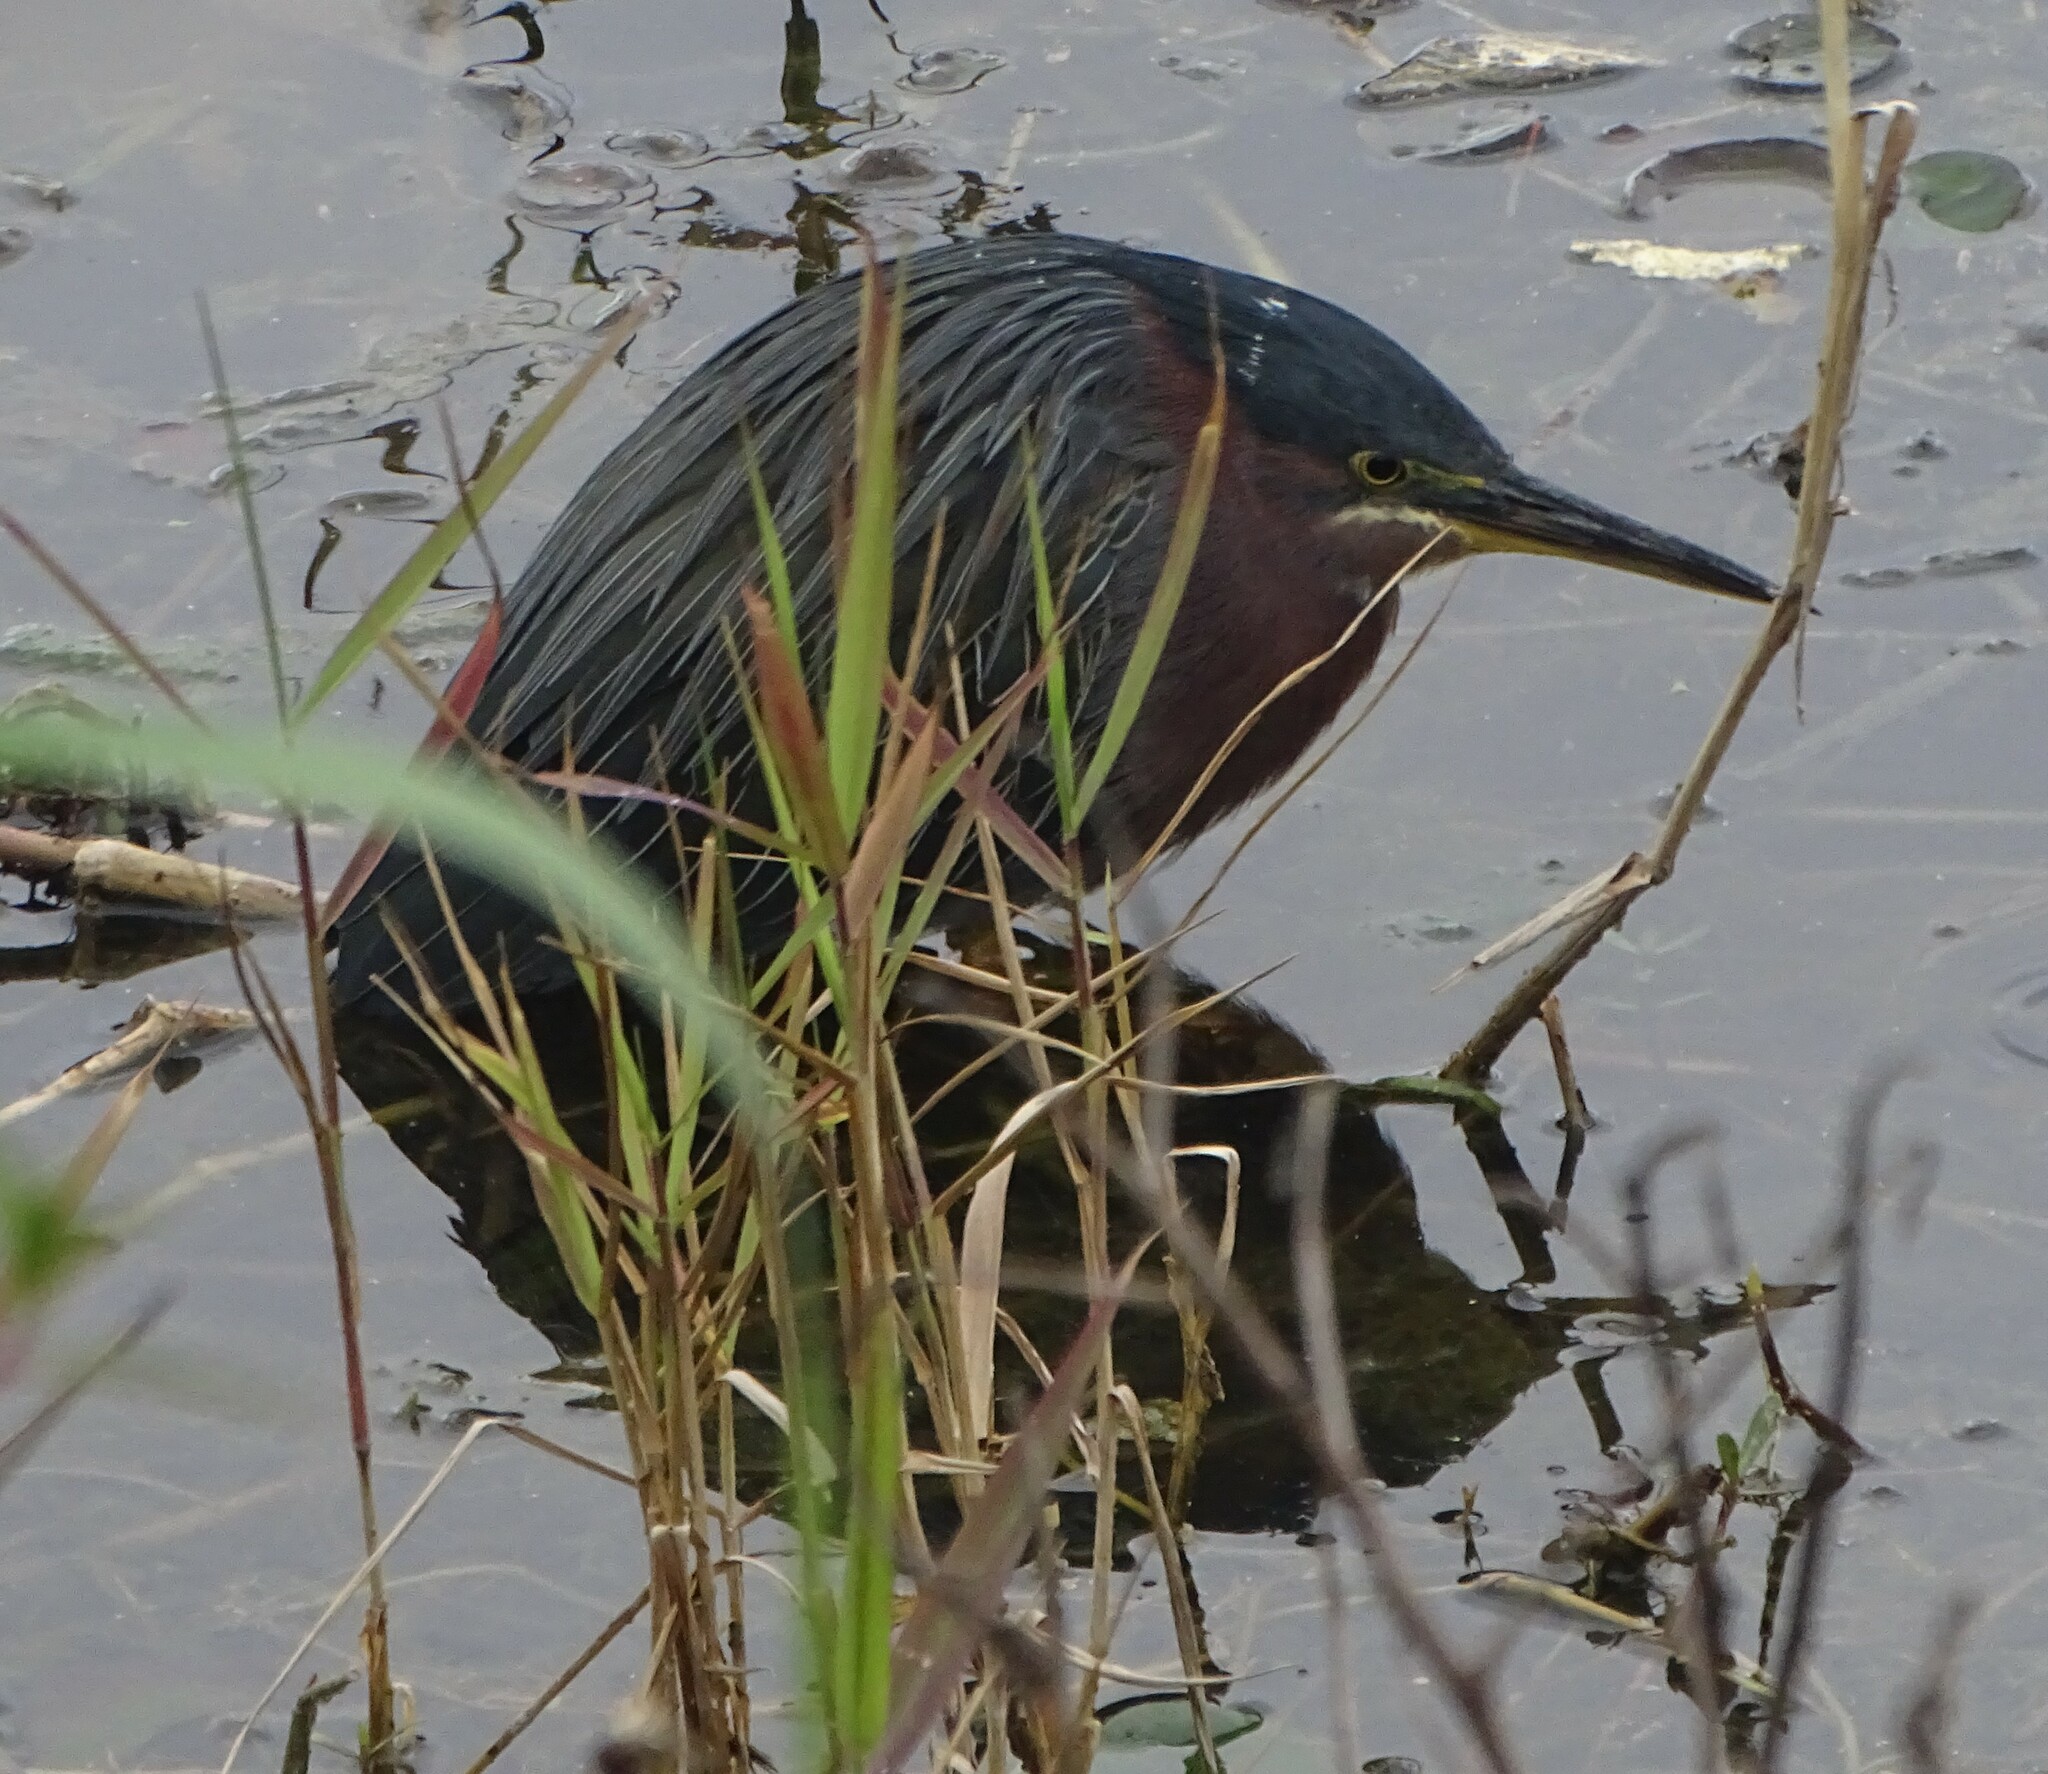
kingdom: Animalia
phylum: Chordata
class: Aves
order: Pelecaniformes
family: Ardeidae
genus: Butorides
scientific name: Butorides virescens
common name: Green heron
